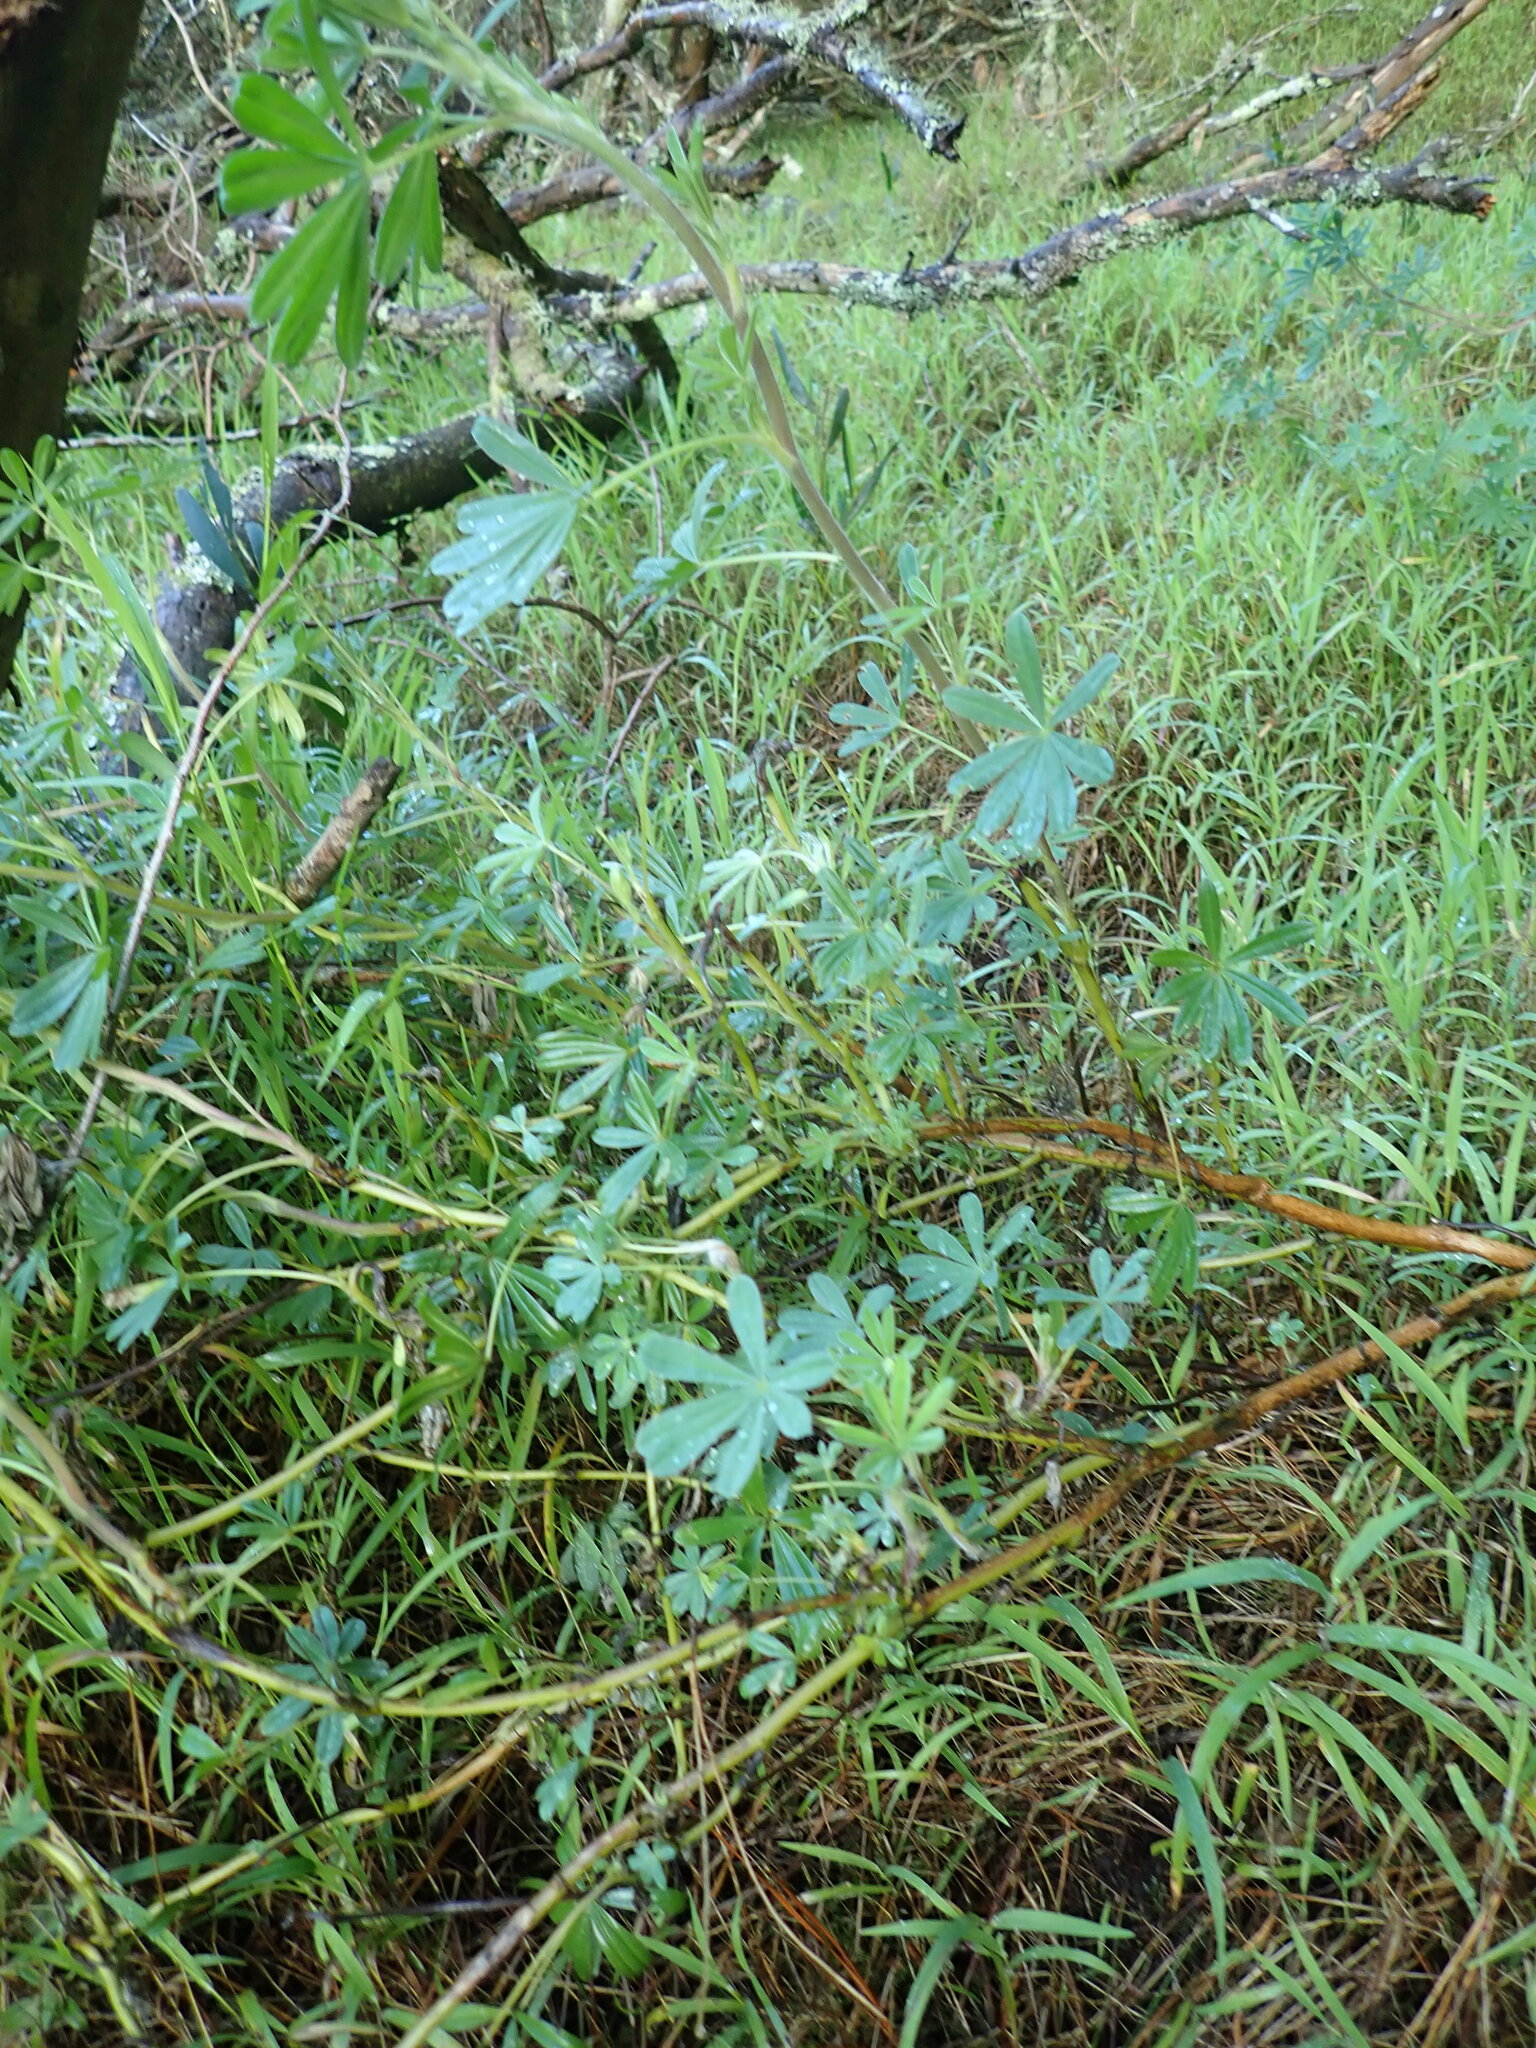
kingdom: Plantae
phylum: Tracheophyta
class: Magnoliopsida
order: Fabales
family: Fabaceae
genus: Lupinus
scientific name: Lupinus arboreus
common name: Yellow bush lupine
